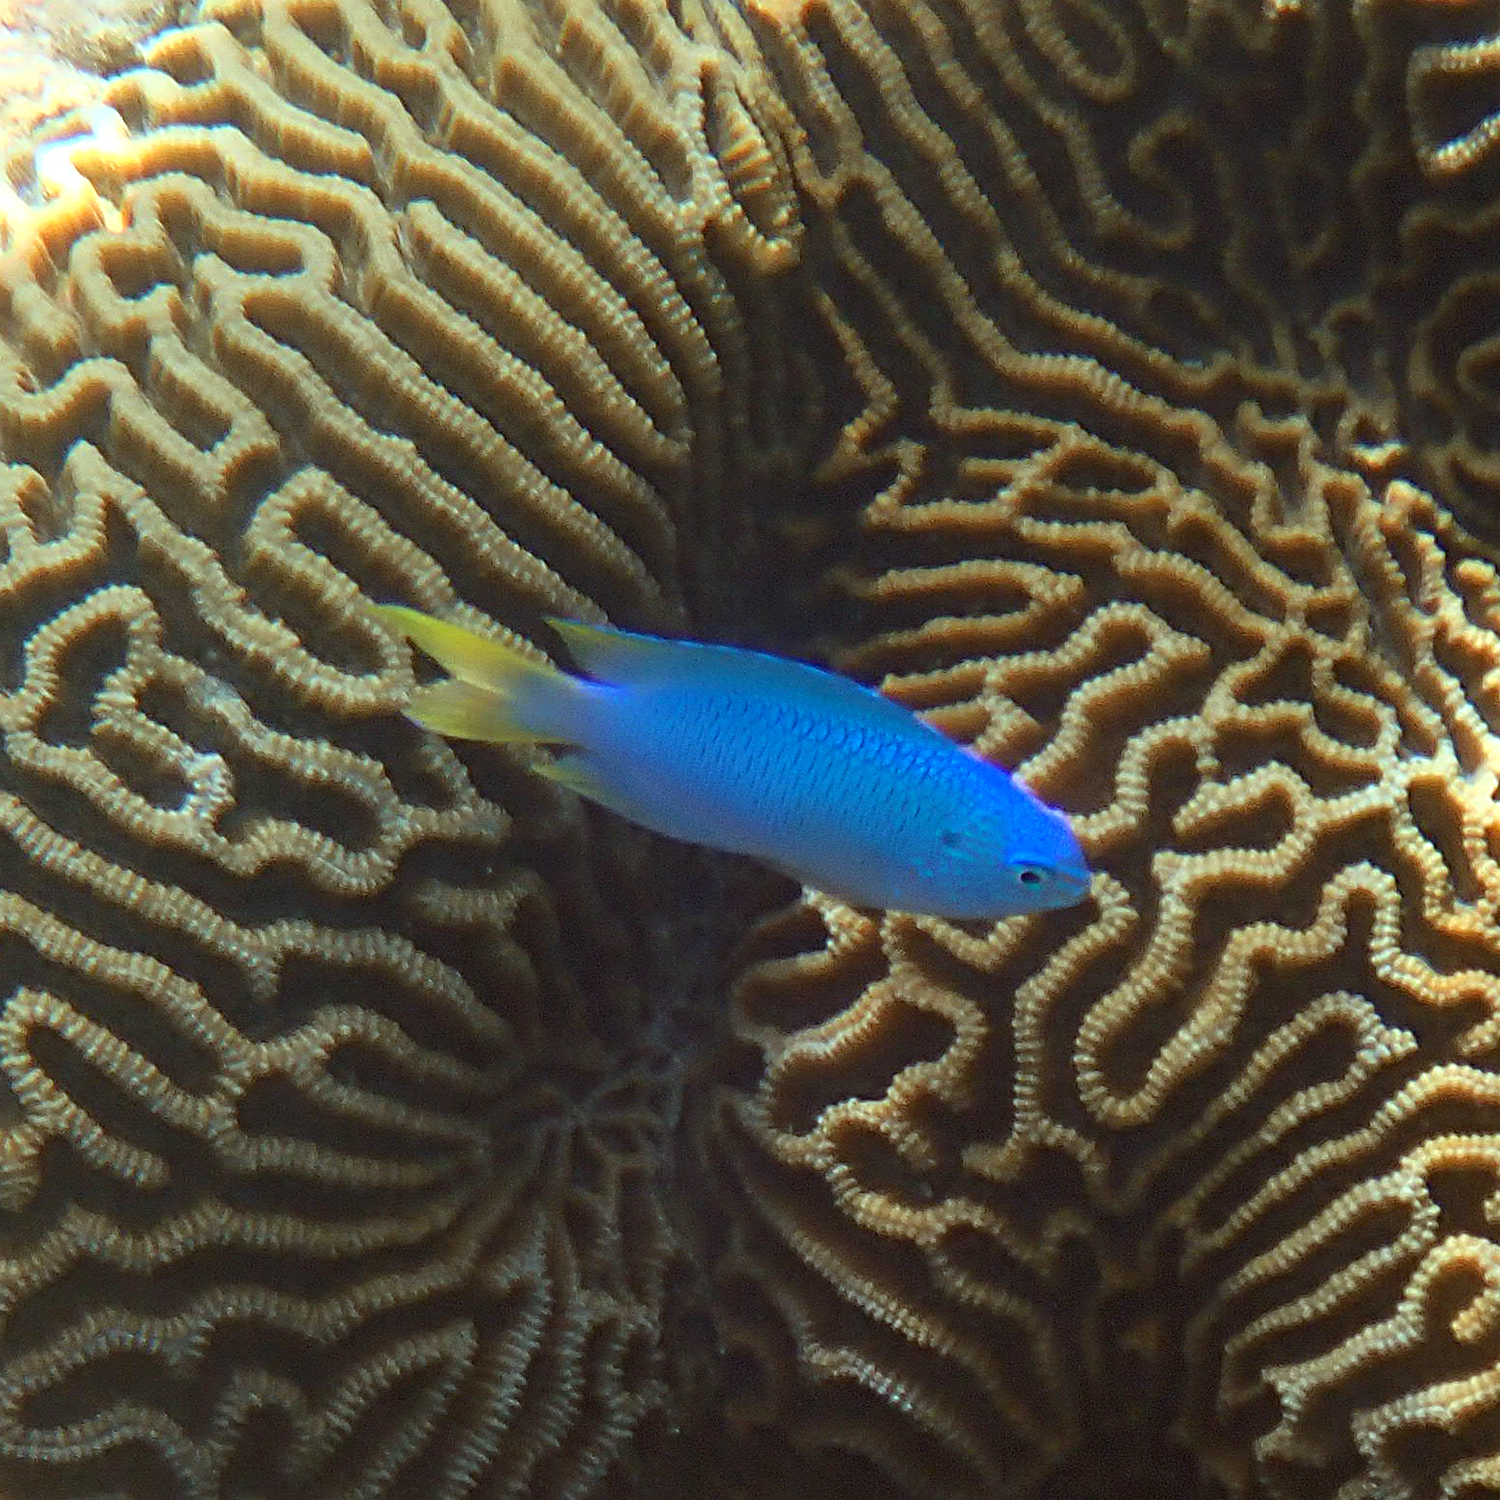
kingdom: Animalia
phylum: Chordata
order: Perciformes
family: Pomacentridae
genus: Pomacentrus
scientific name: Pomacentrus pavo
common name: Sapphire damsel
